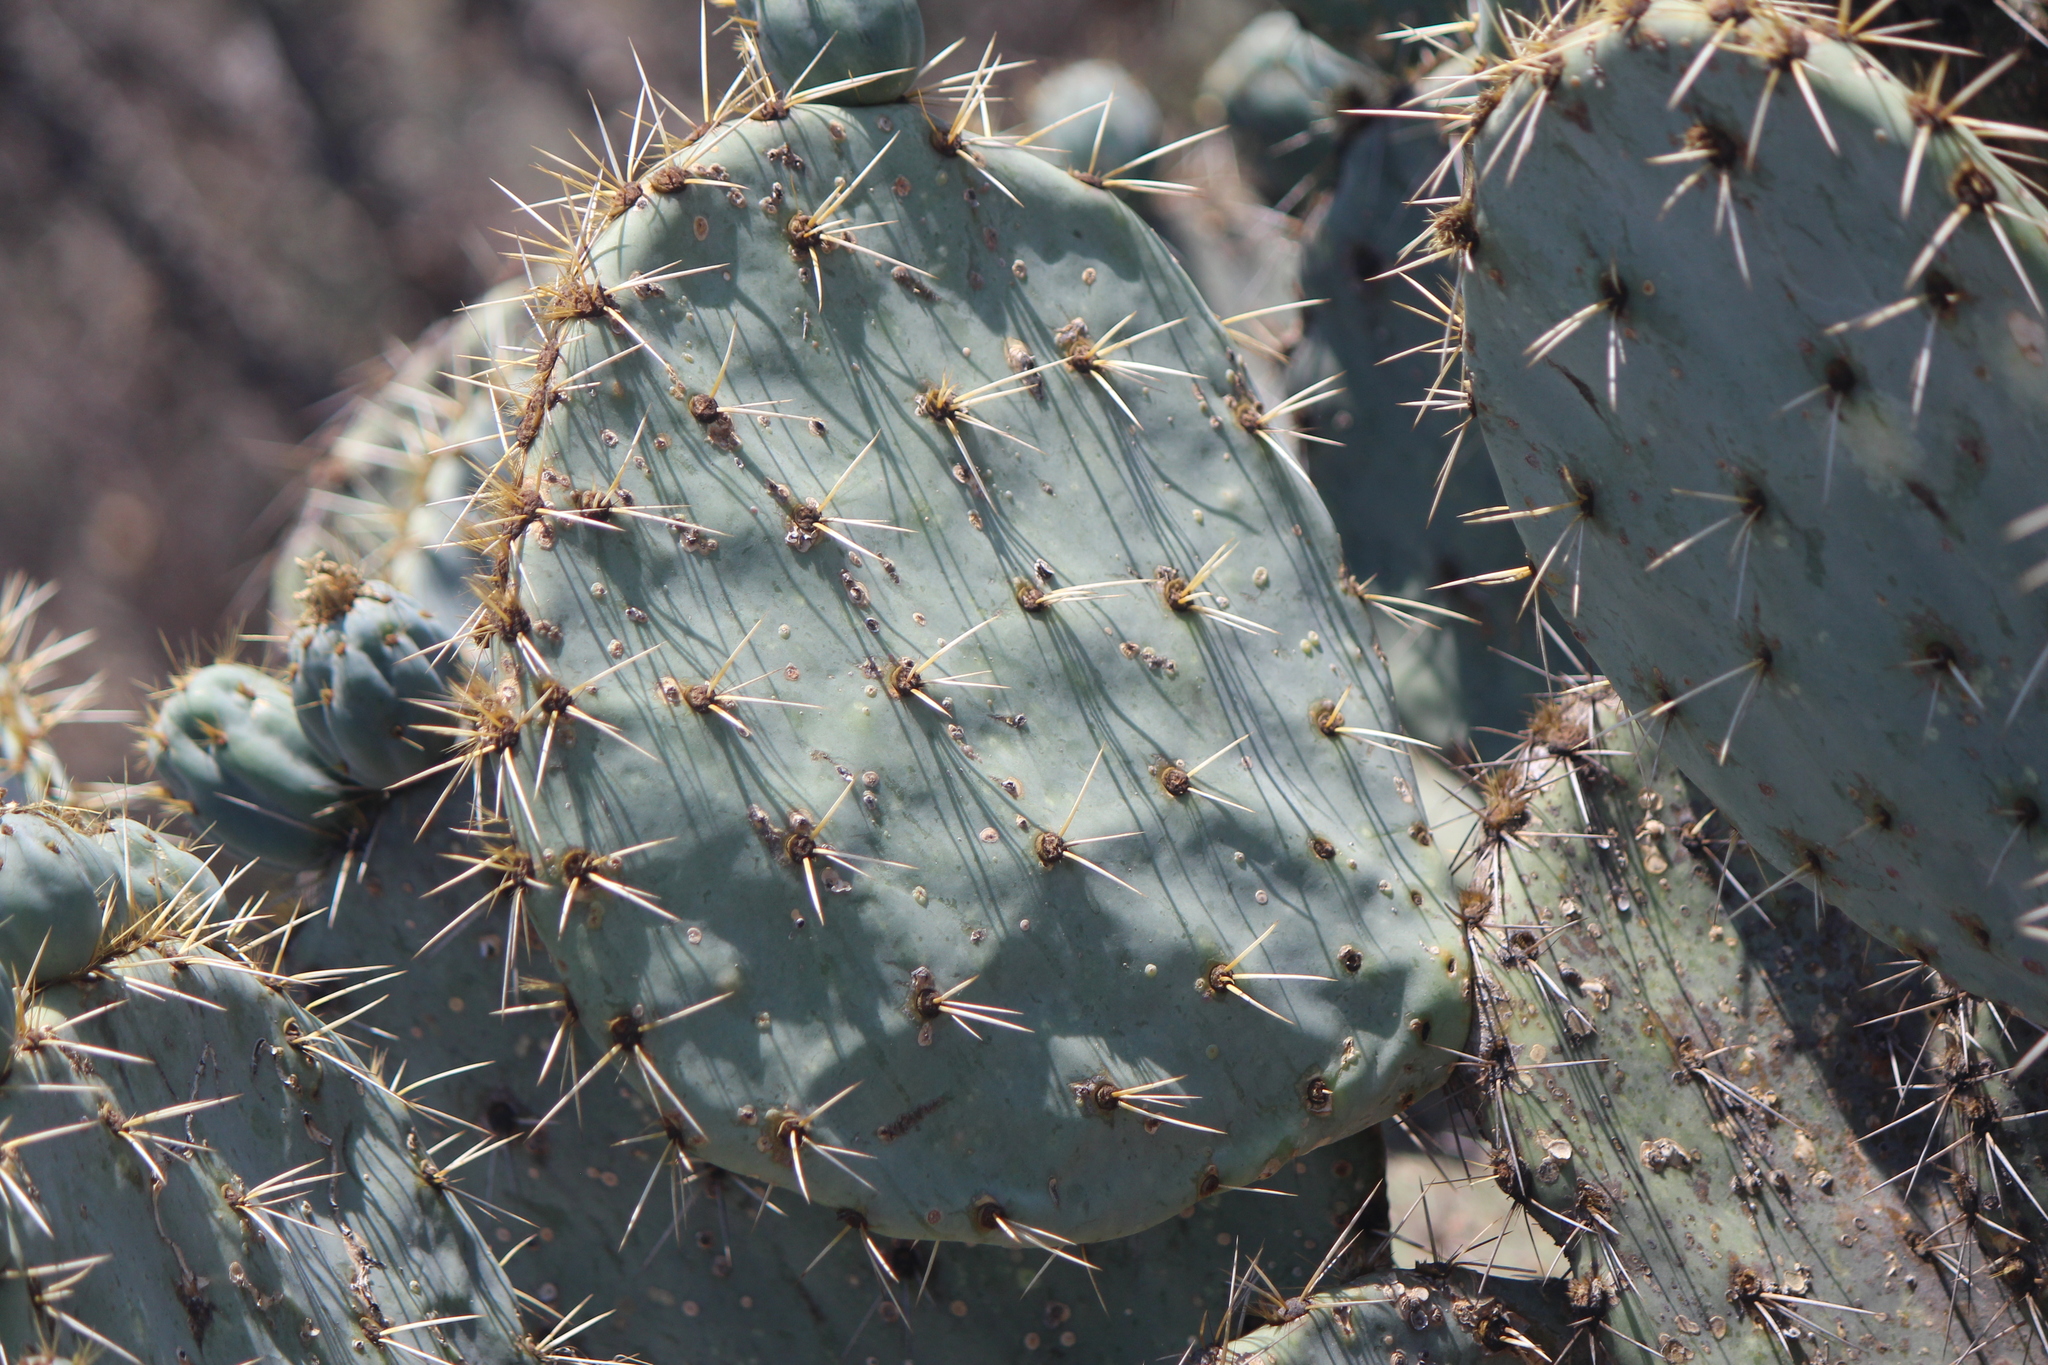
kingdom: Plantae
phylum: Tracheophyta
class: Magnoliopsida
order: Caryophyllales
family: Cactaceae
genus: Opuntia
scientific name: Opuntia robusta
